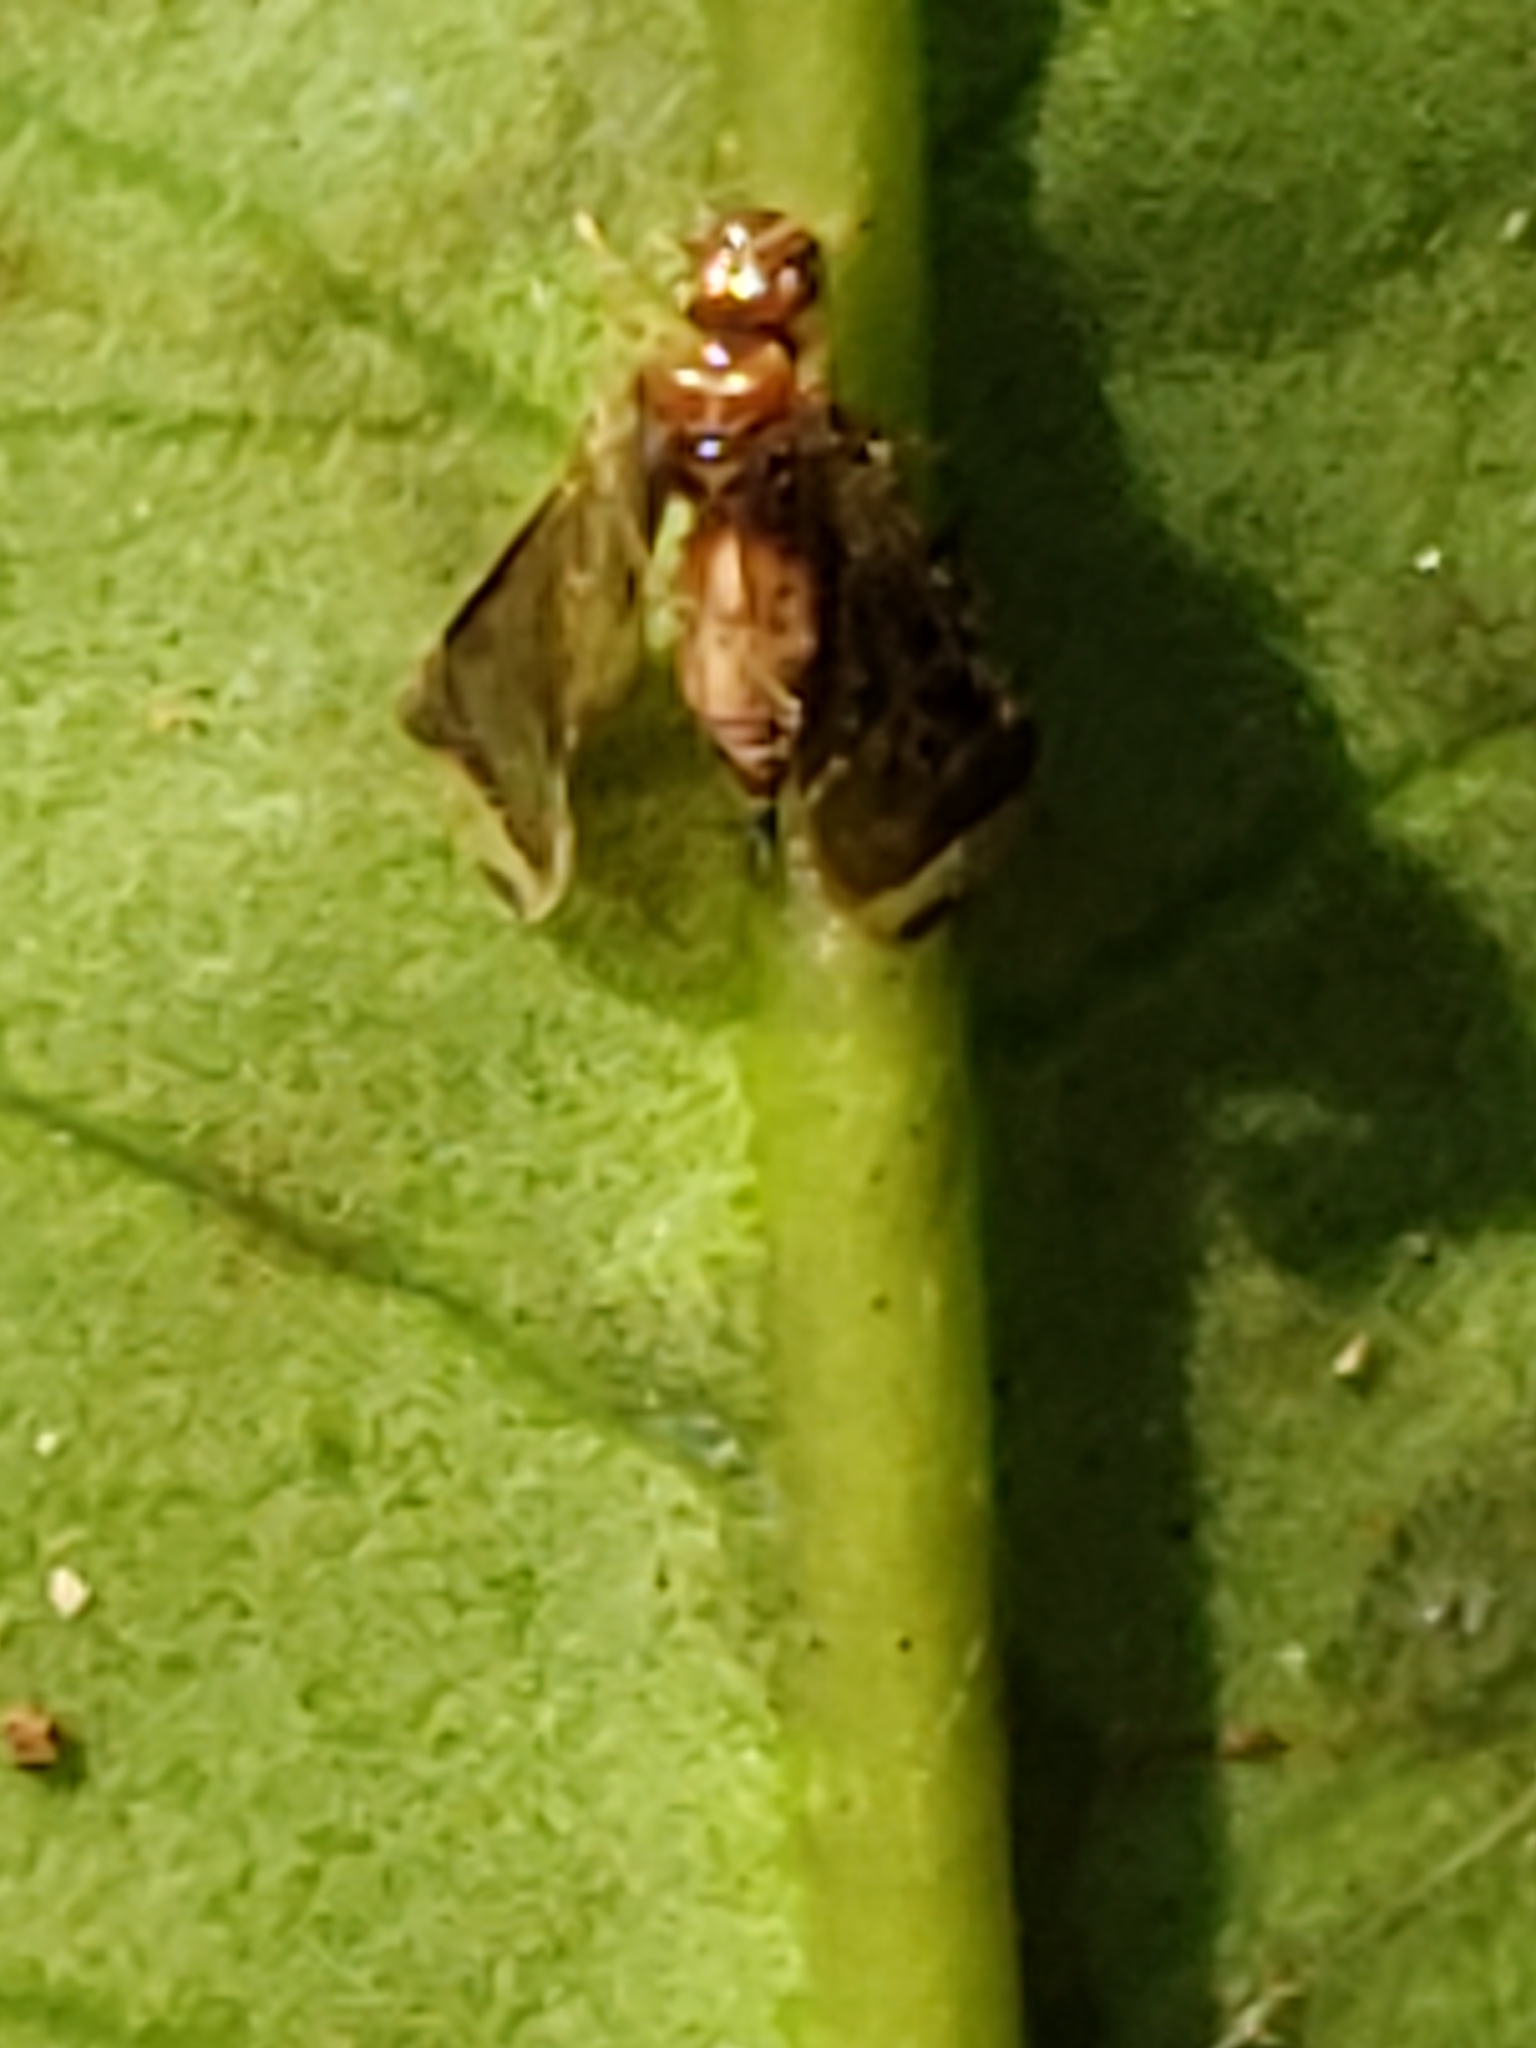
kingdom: Animalia
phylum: Arthropoda
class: Insecta
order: Psocodea
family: Amphipsocidae
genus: Polypsocus
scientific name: Polypsocus corruptus
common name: Corrupt barklouse
